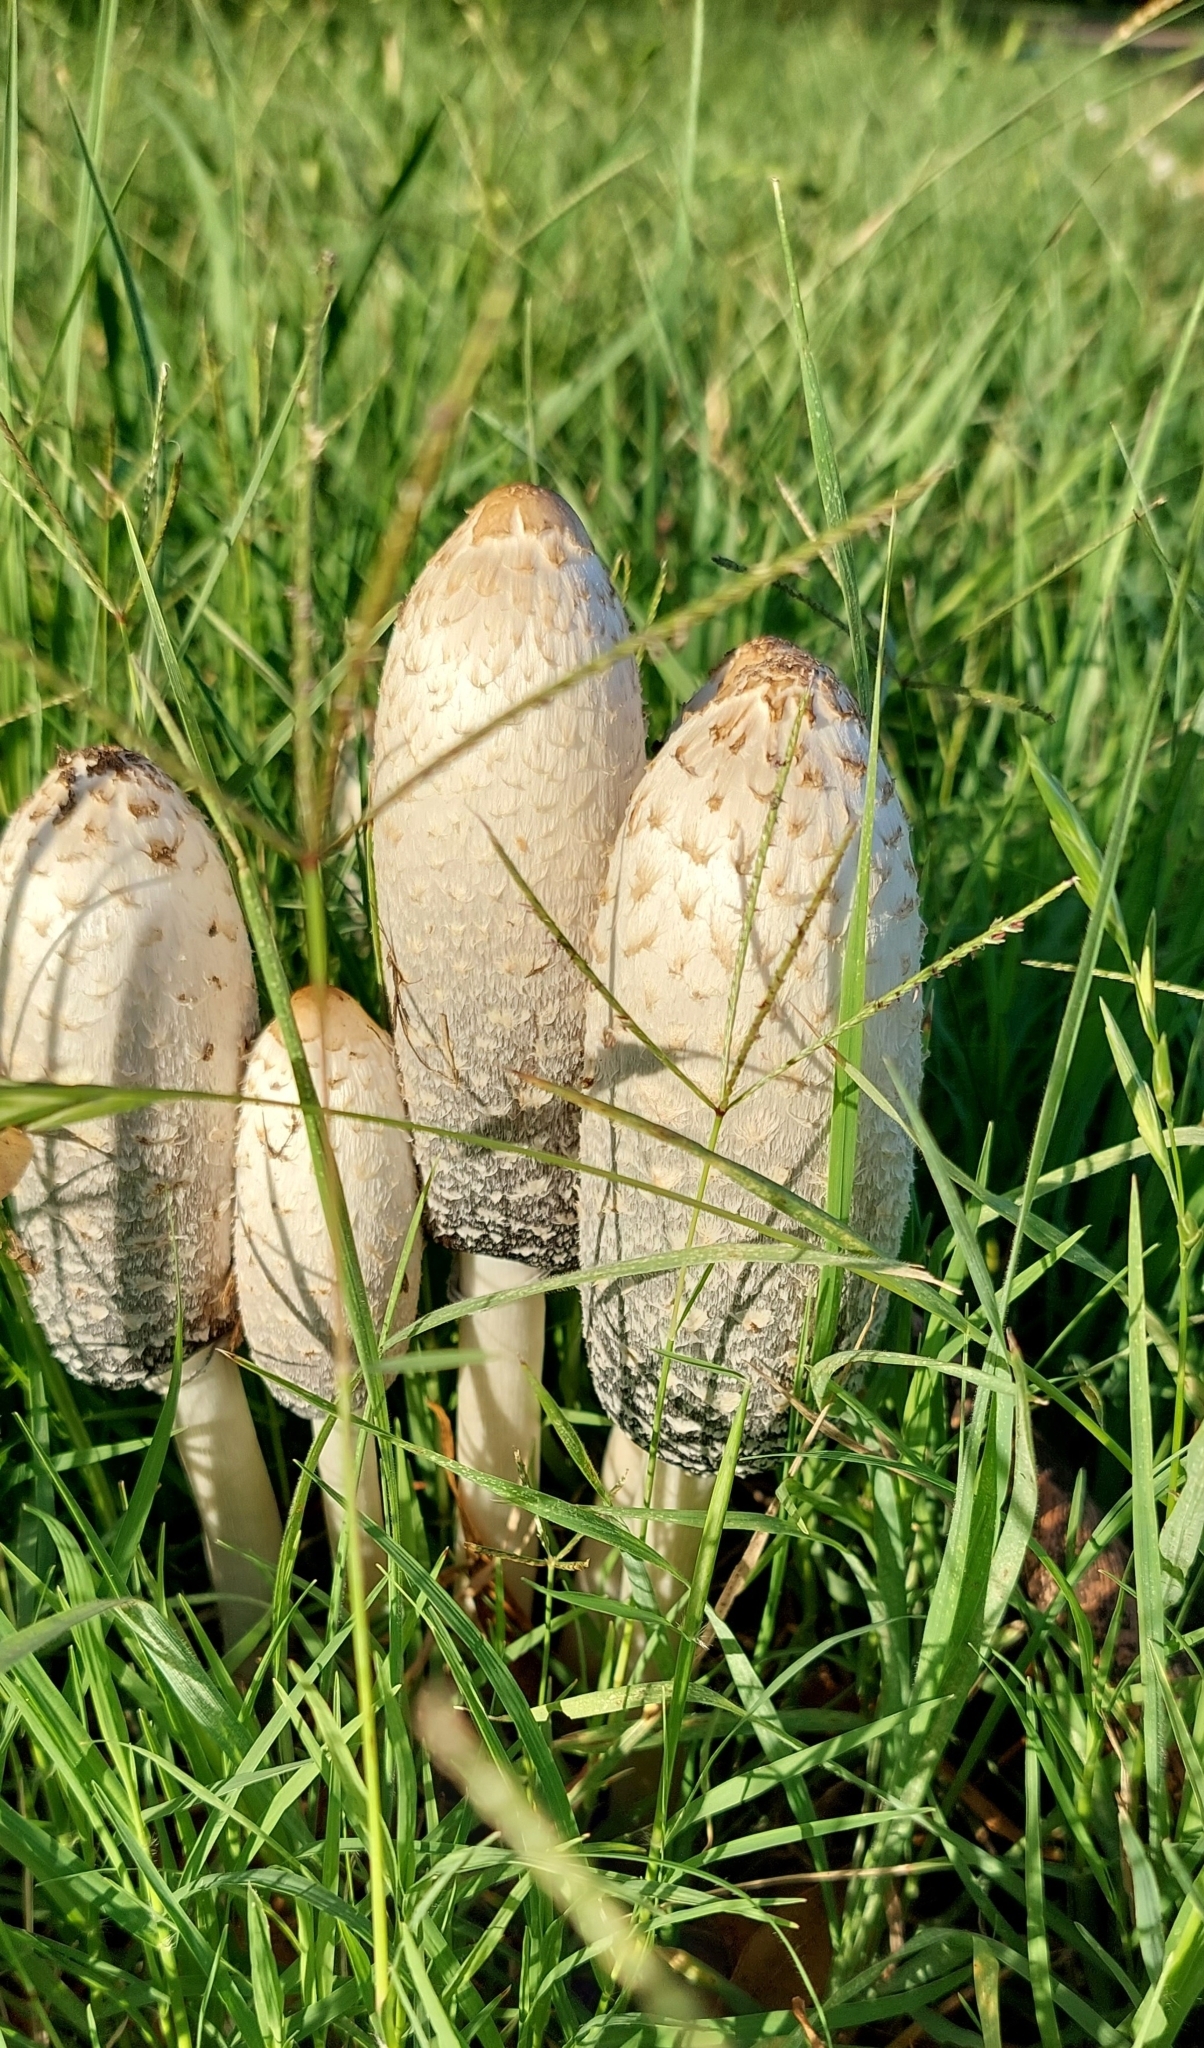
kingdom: Fungi
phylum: Basidiomycota
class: Agaricomycetes
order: Agaricales
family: Agaricaceae
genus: Coprinus
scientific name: Coprinus comatus
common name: Lawyer's wig
